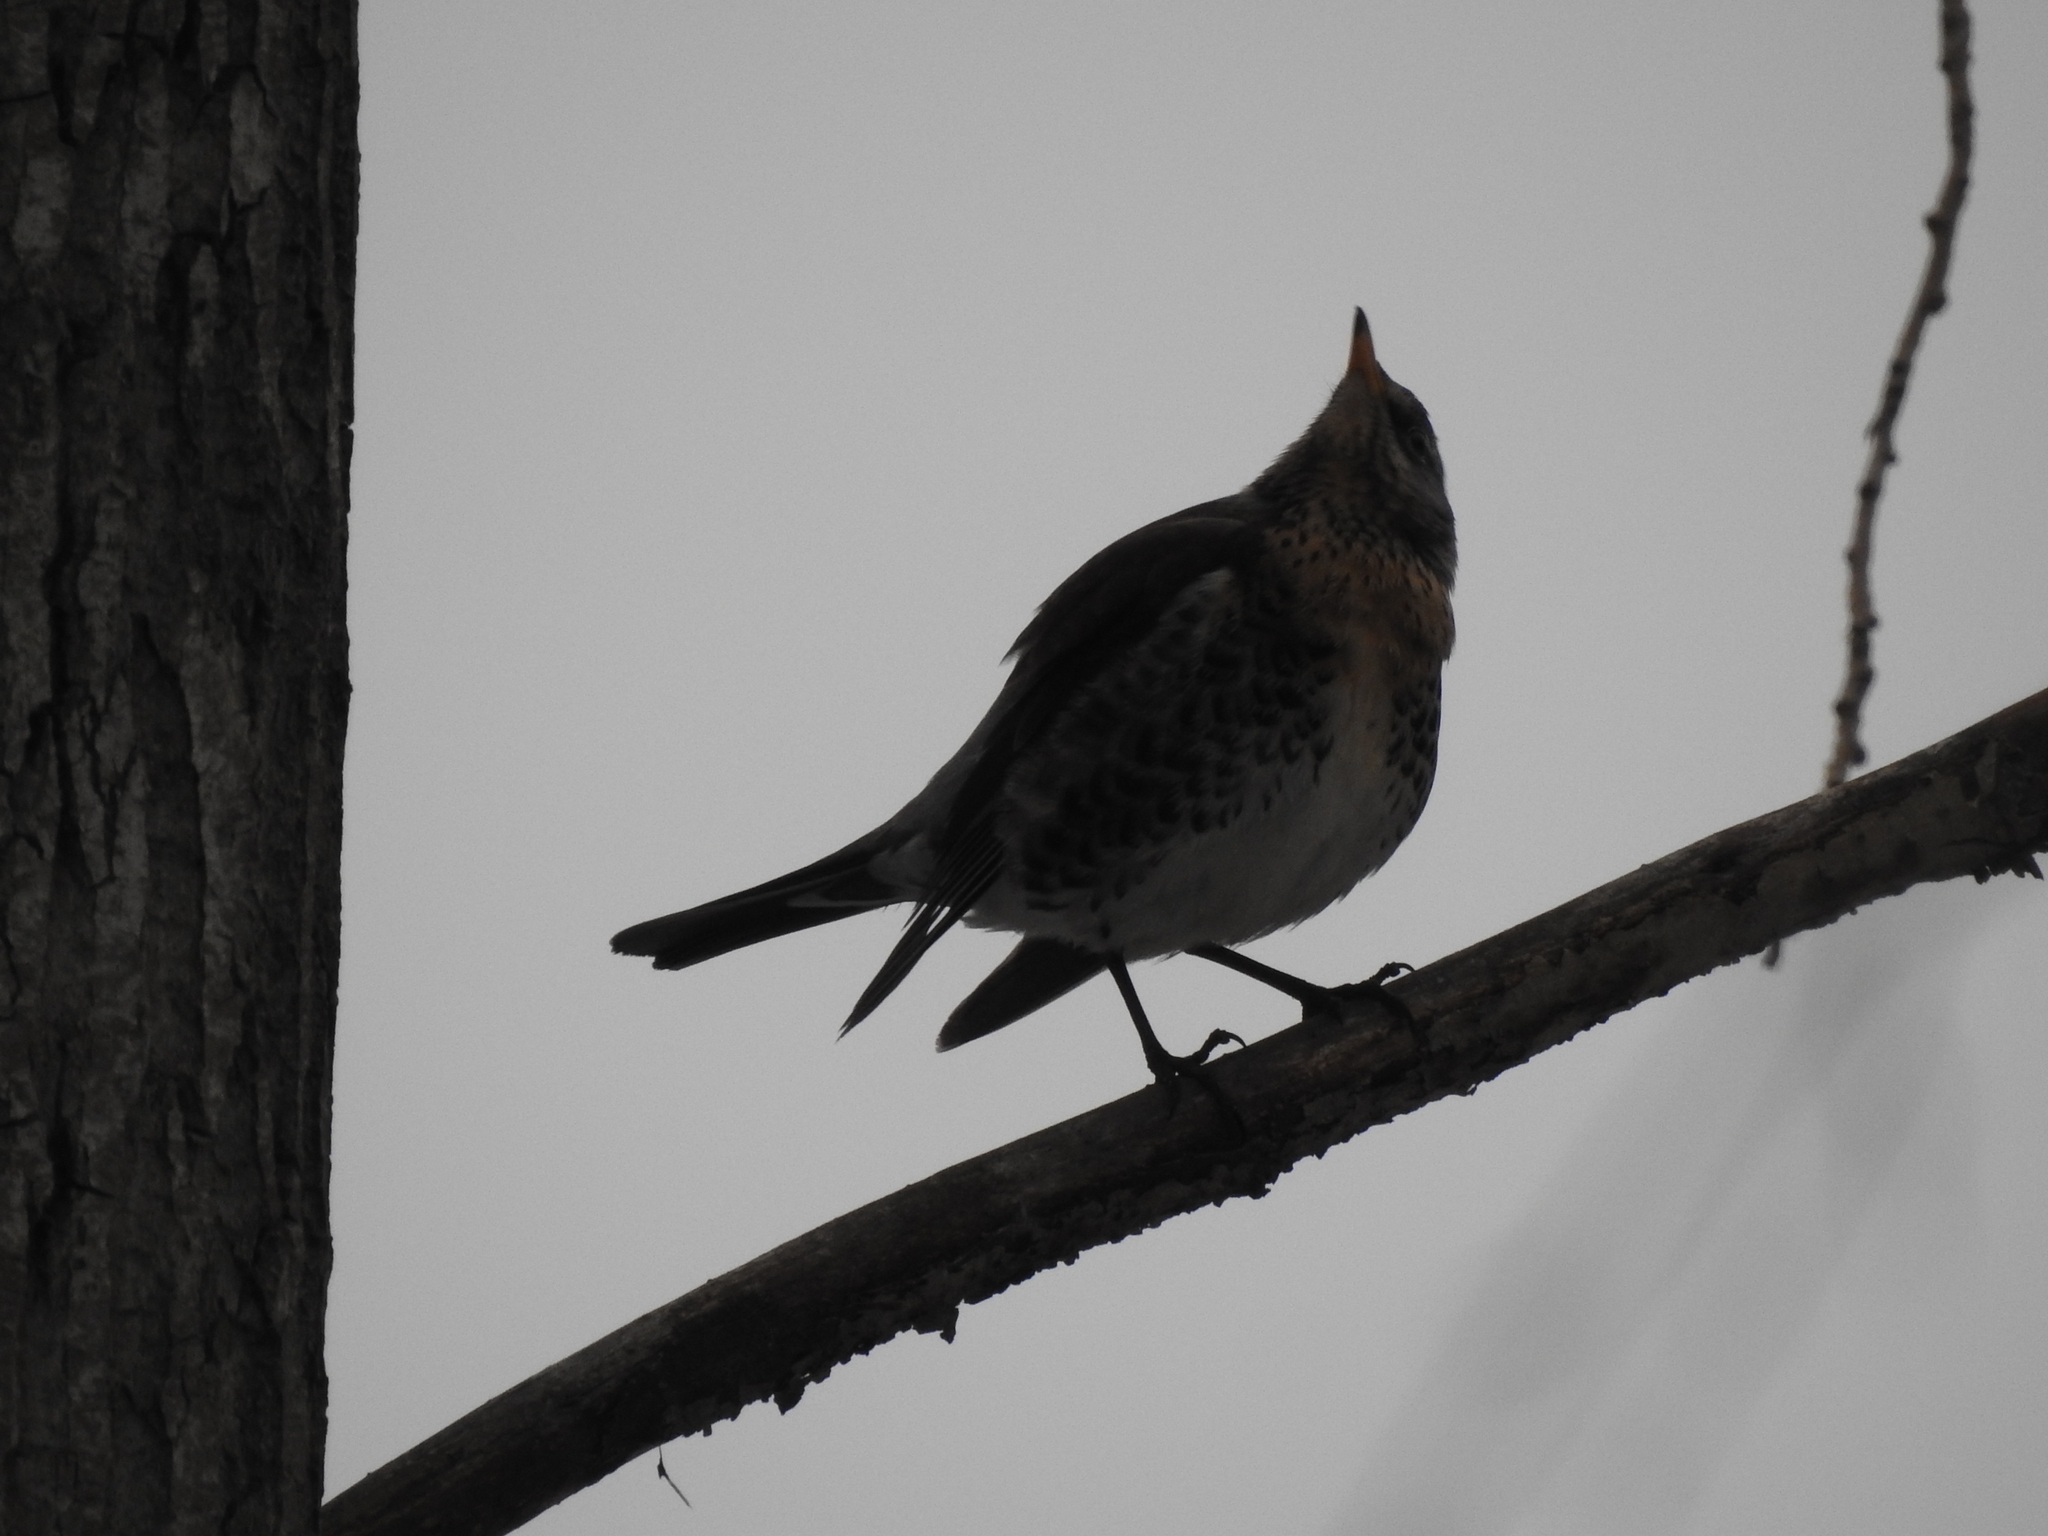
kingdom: Animalia
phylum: Chordata
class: Aves
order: Passeriformes
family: Turdidae
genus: Turdus
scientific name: Turdus pilaris
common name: Fieldfare
